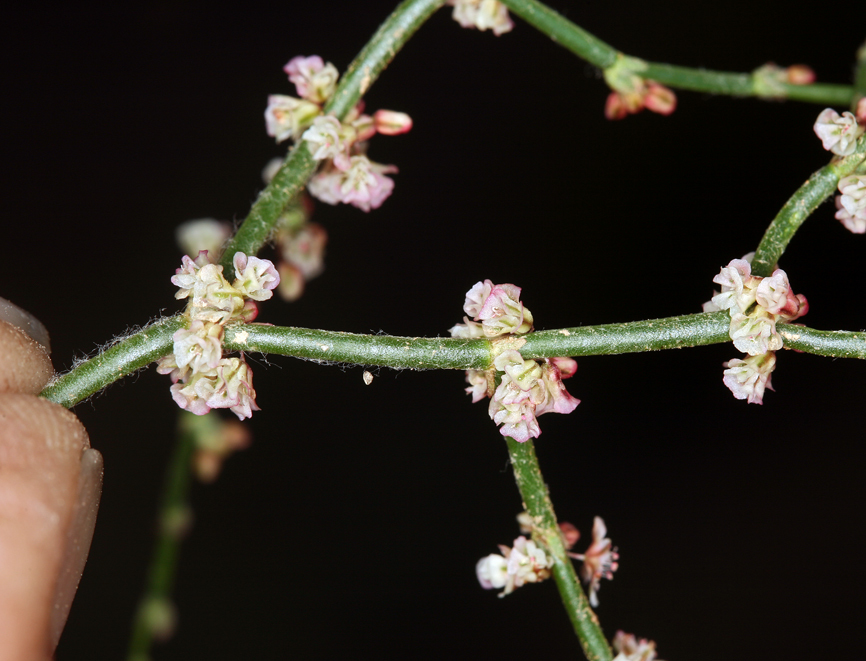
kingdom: Plantae
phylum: Tracheophyta
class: Magnoliopsida
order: Caryophyllales
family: Polygonaceae
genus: Eriogonum
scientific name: Eriogonum palmerianum
